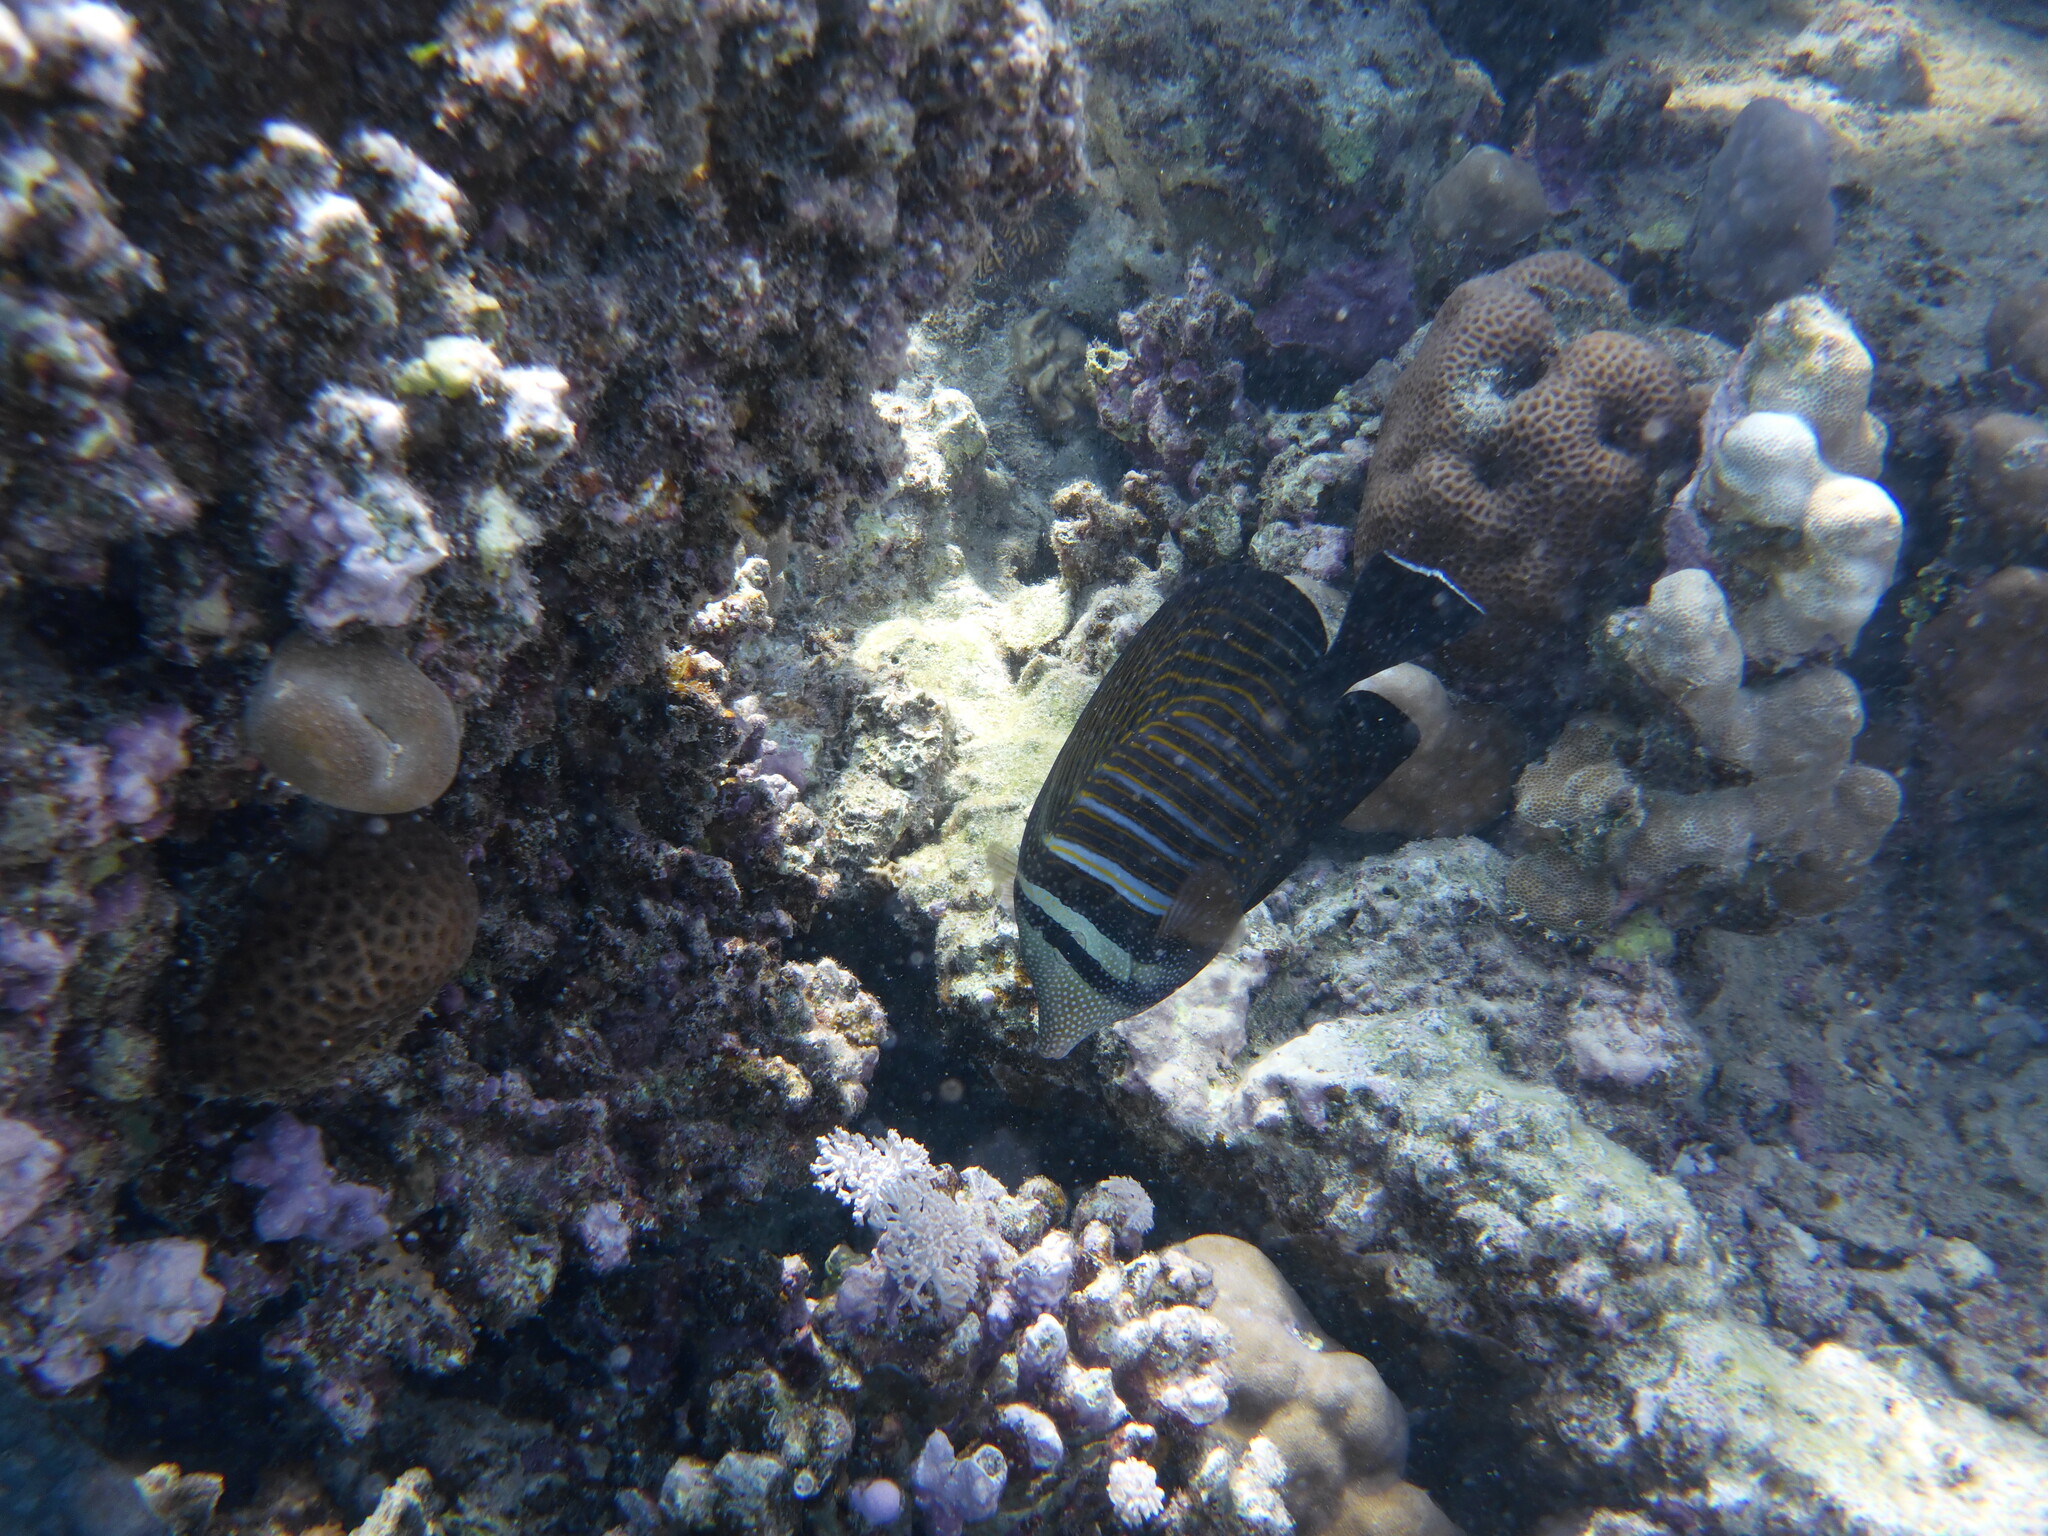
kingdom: Animalia
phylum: Chordata
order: Perciformes
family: Acanthuridae
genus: Zebrasoma
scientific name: Zebrasoma desjardinii
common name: Desjardin's sailfin tang
